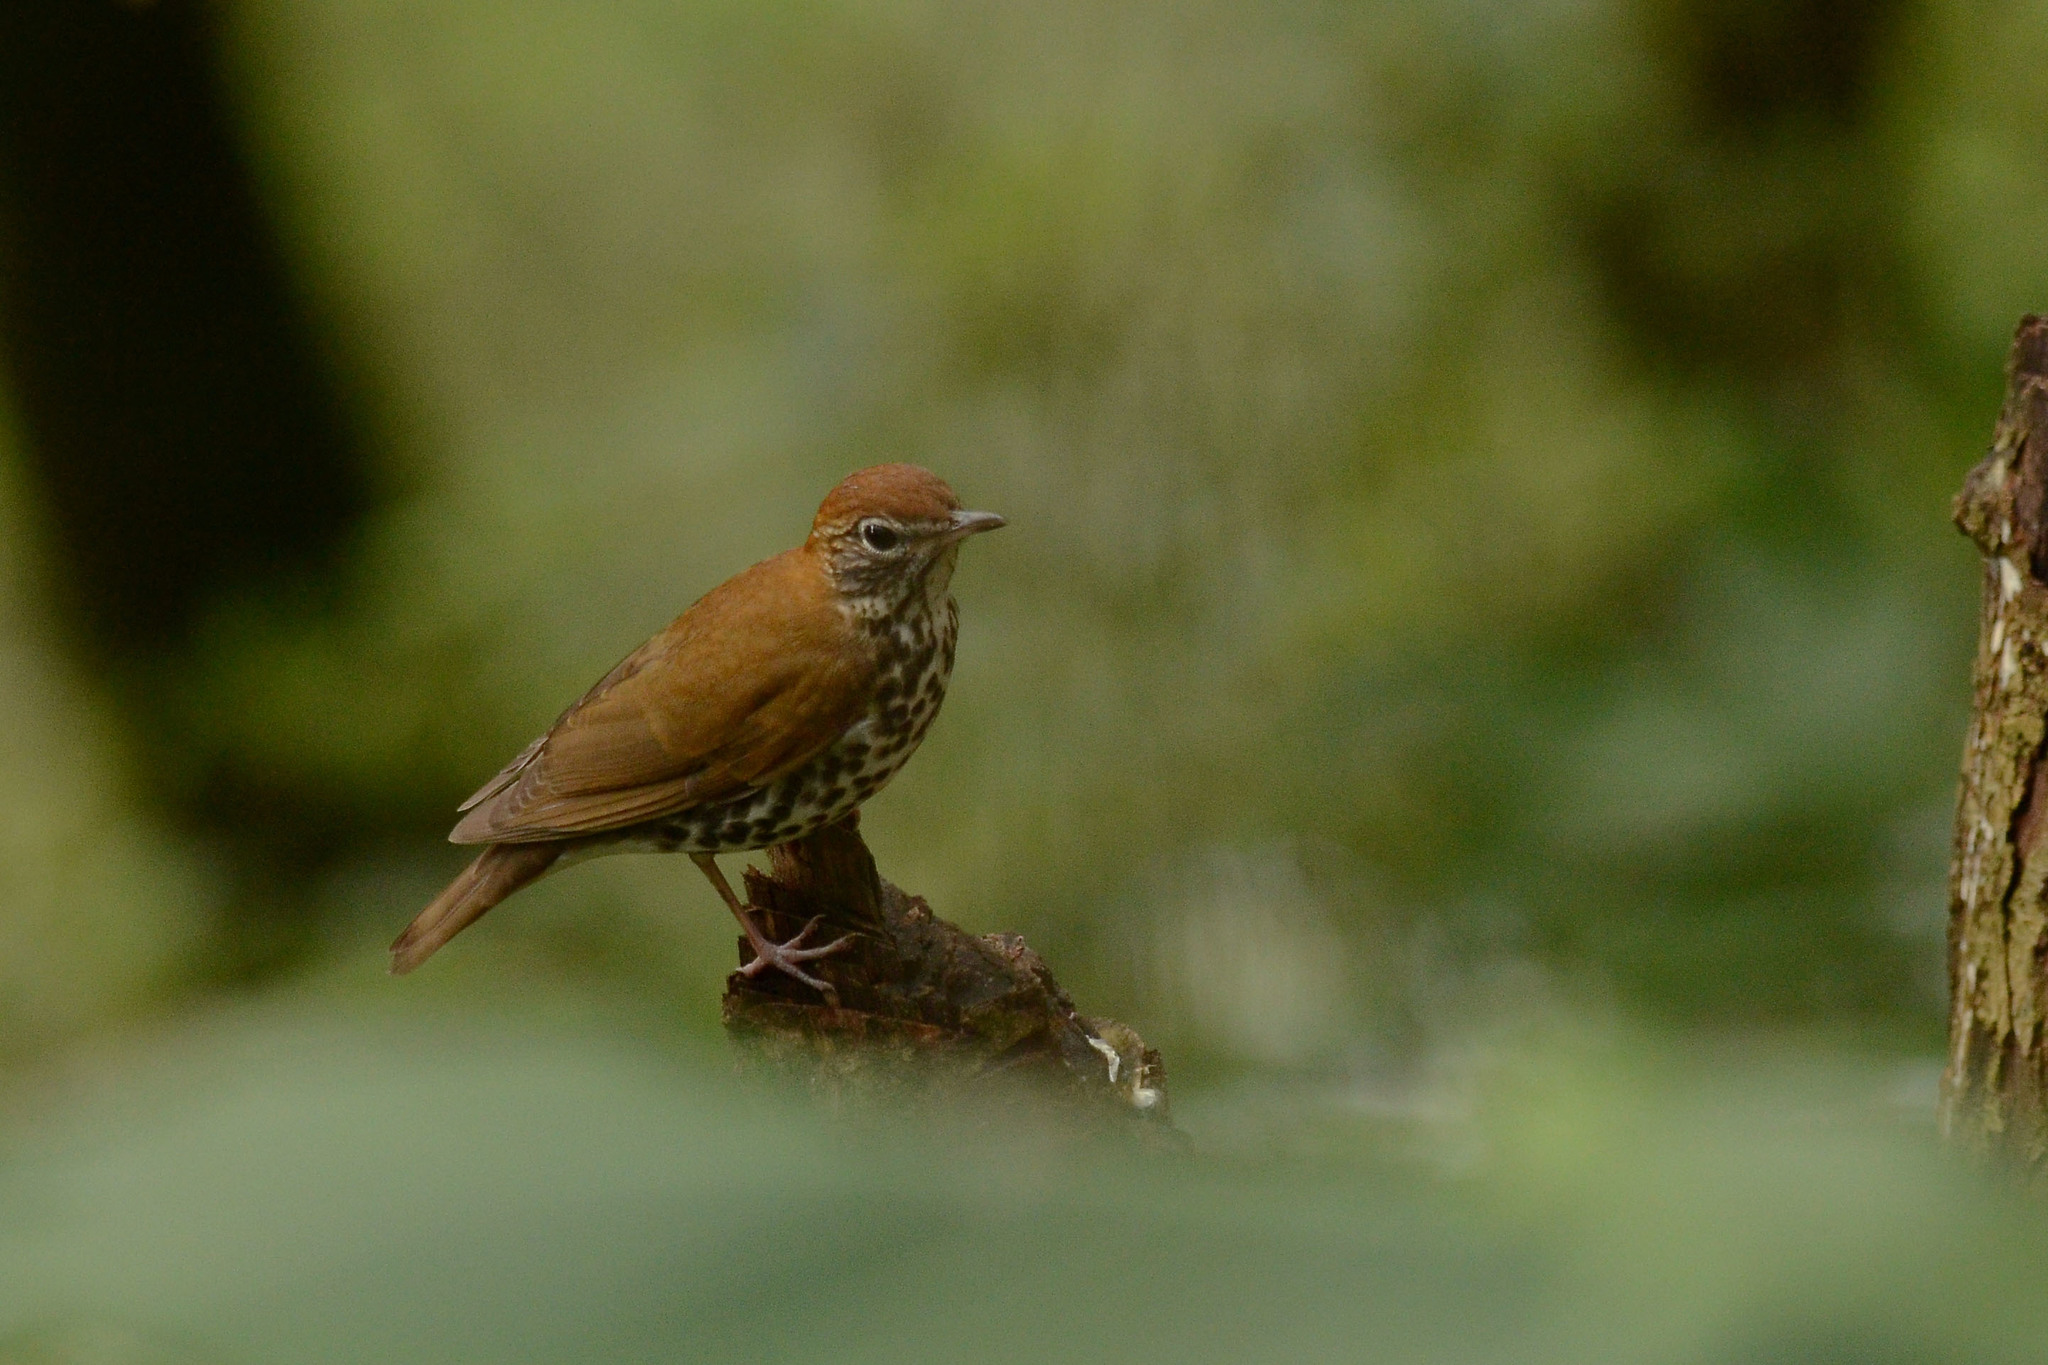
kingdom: Animalia
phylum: Chordata
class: Aves
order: Passeriformes
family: Turdidae
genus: Hylocichla
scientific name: Hylocichla mustelina
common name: Wood thrush
